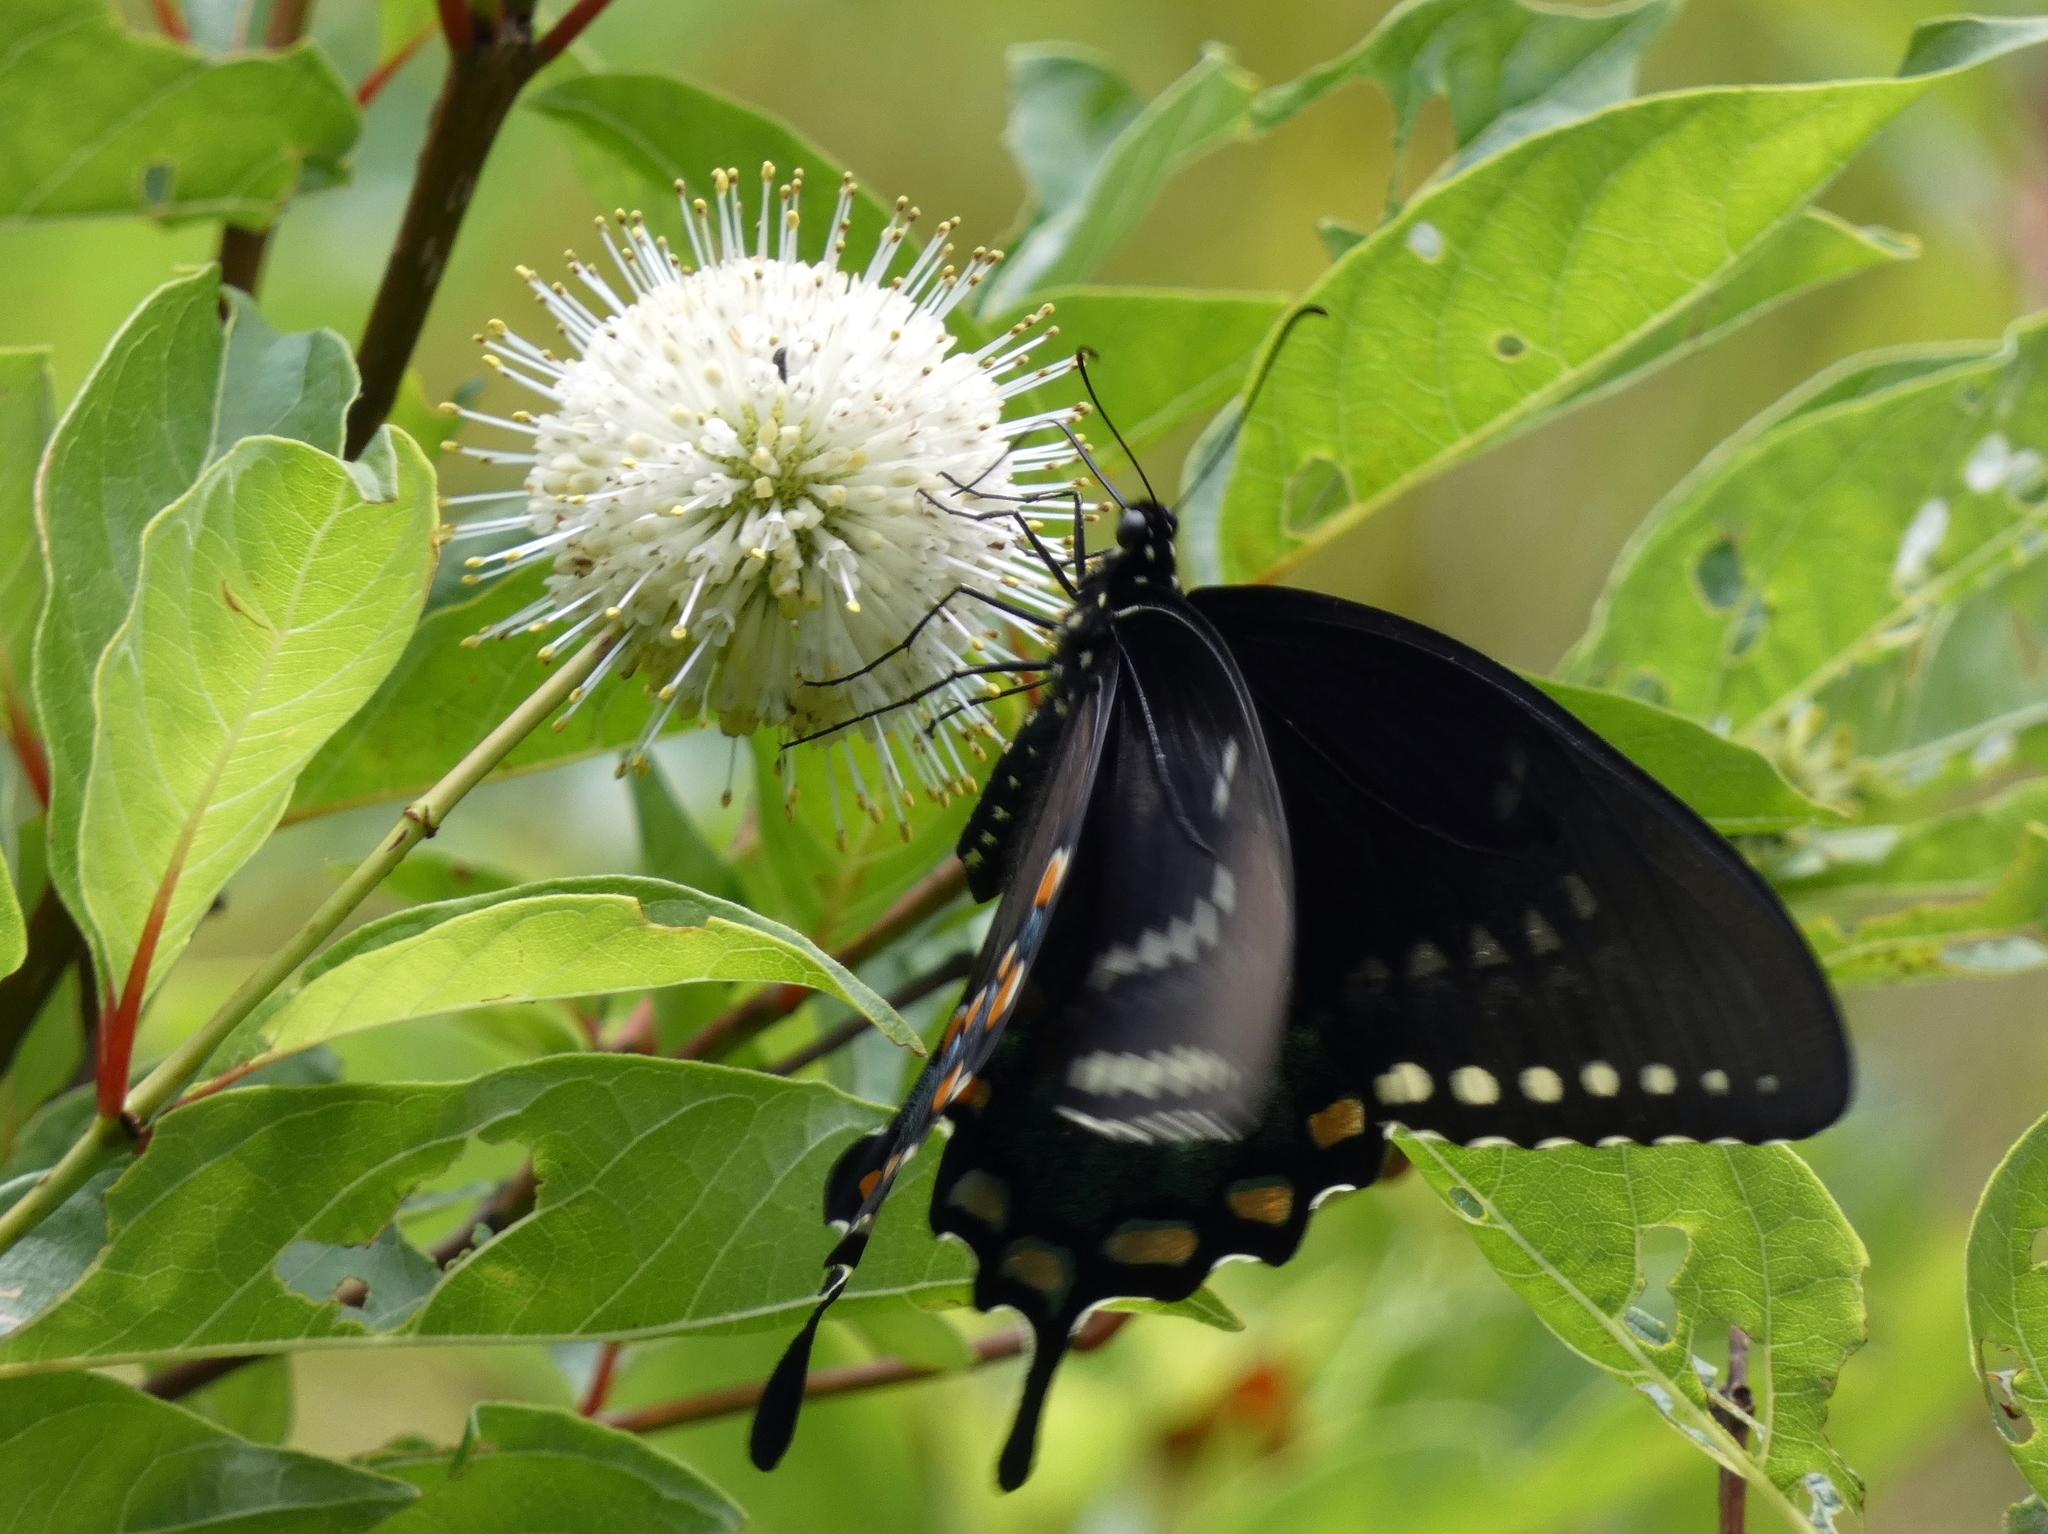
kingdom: Animalia
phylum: Arthropoda
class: Insecta
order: Lepidoptera
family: Papilionidae
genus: Papilio
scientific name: Papilio troilus
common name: Spicebush swallowtail
